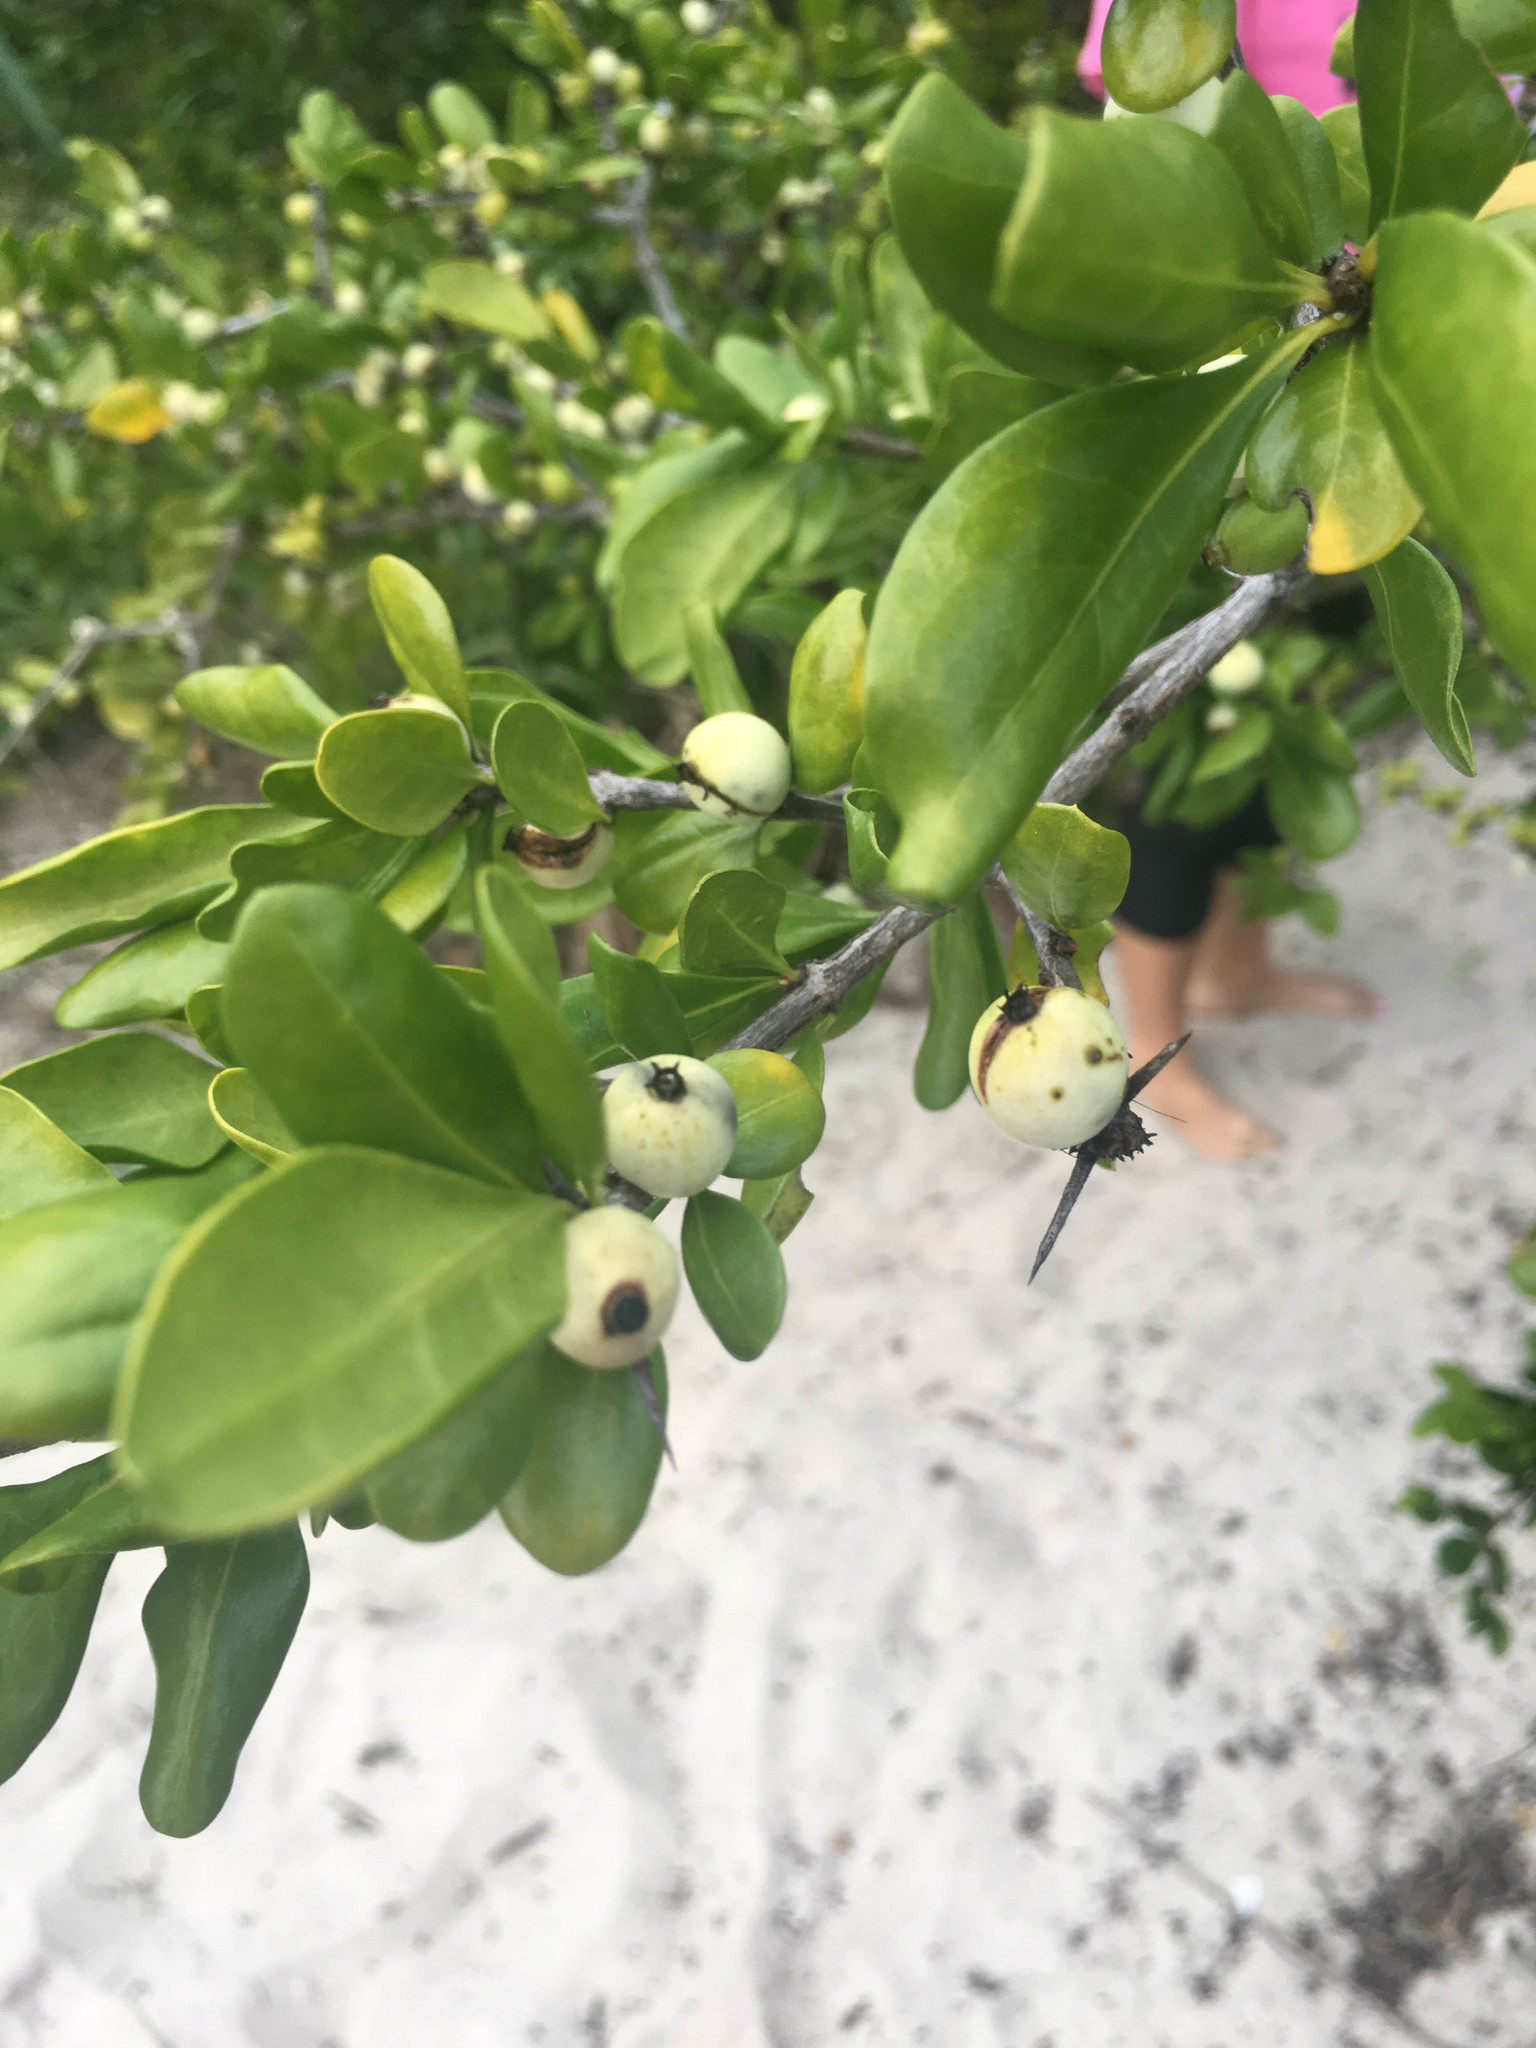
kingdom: Plantae
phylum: Tracheophyta
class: Magnoliopsida
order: Gentianales
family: Rubiaceae
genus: Randia
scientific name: Randia aculeata
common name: Inkberry
